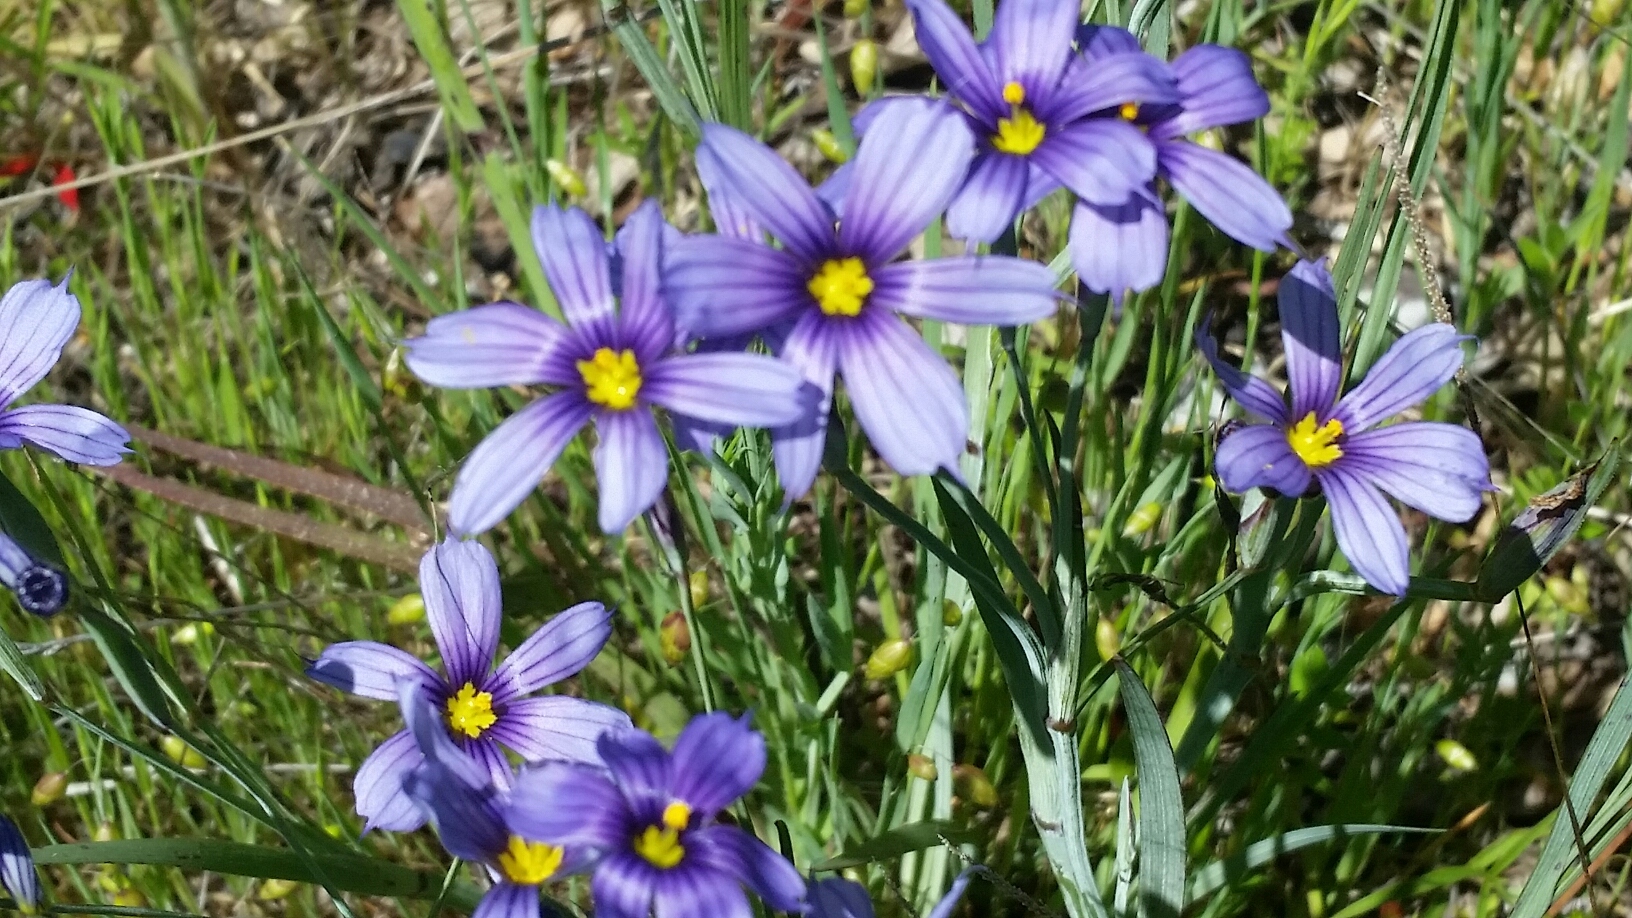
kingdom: Plantae
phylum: Tracheophyta
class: Liliopsida
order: Asparagales
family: Iridaceae
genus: Sisyrinchium
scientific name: Sisyrinchium bellum
